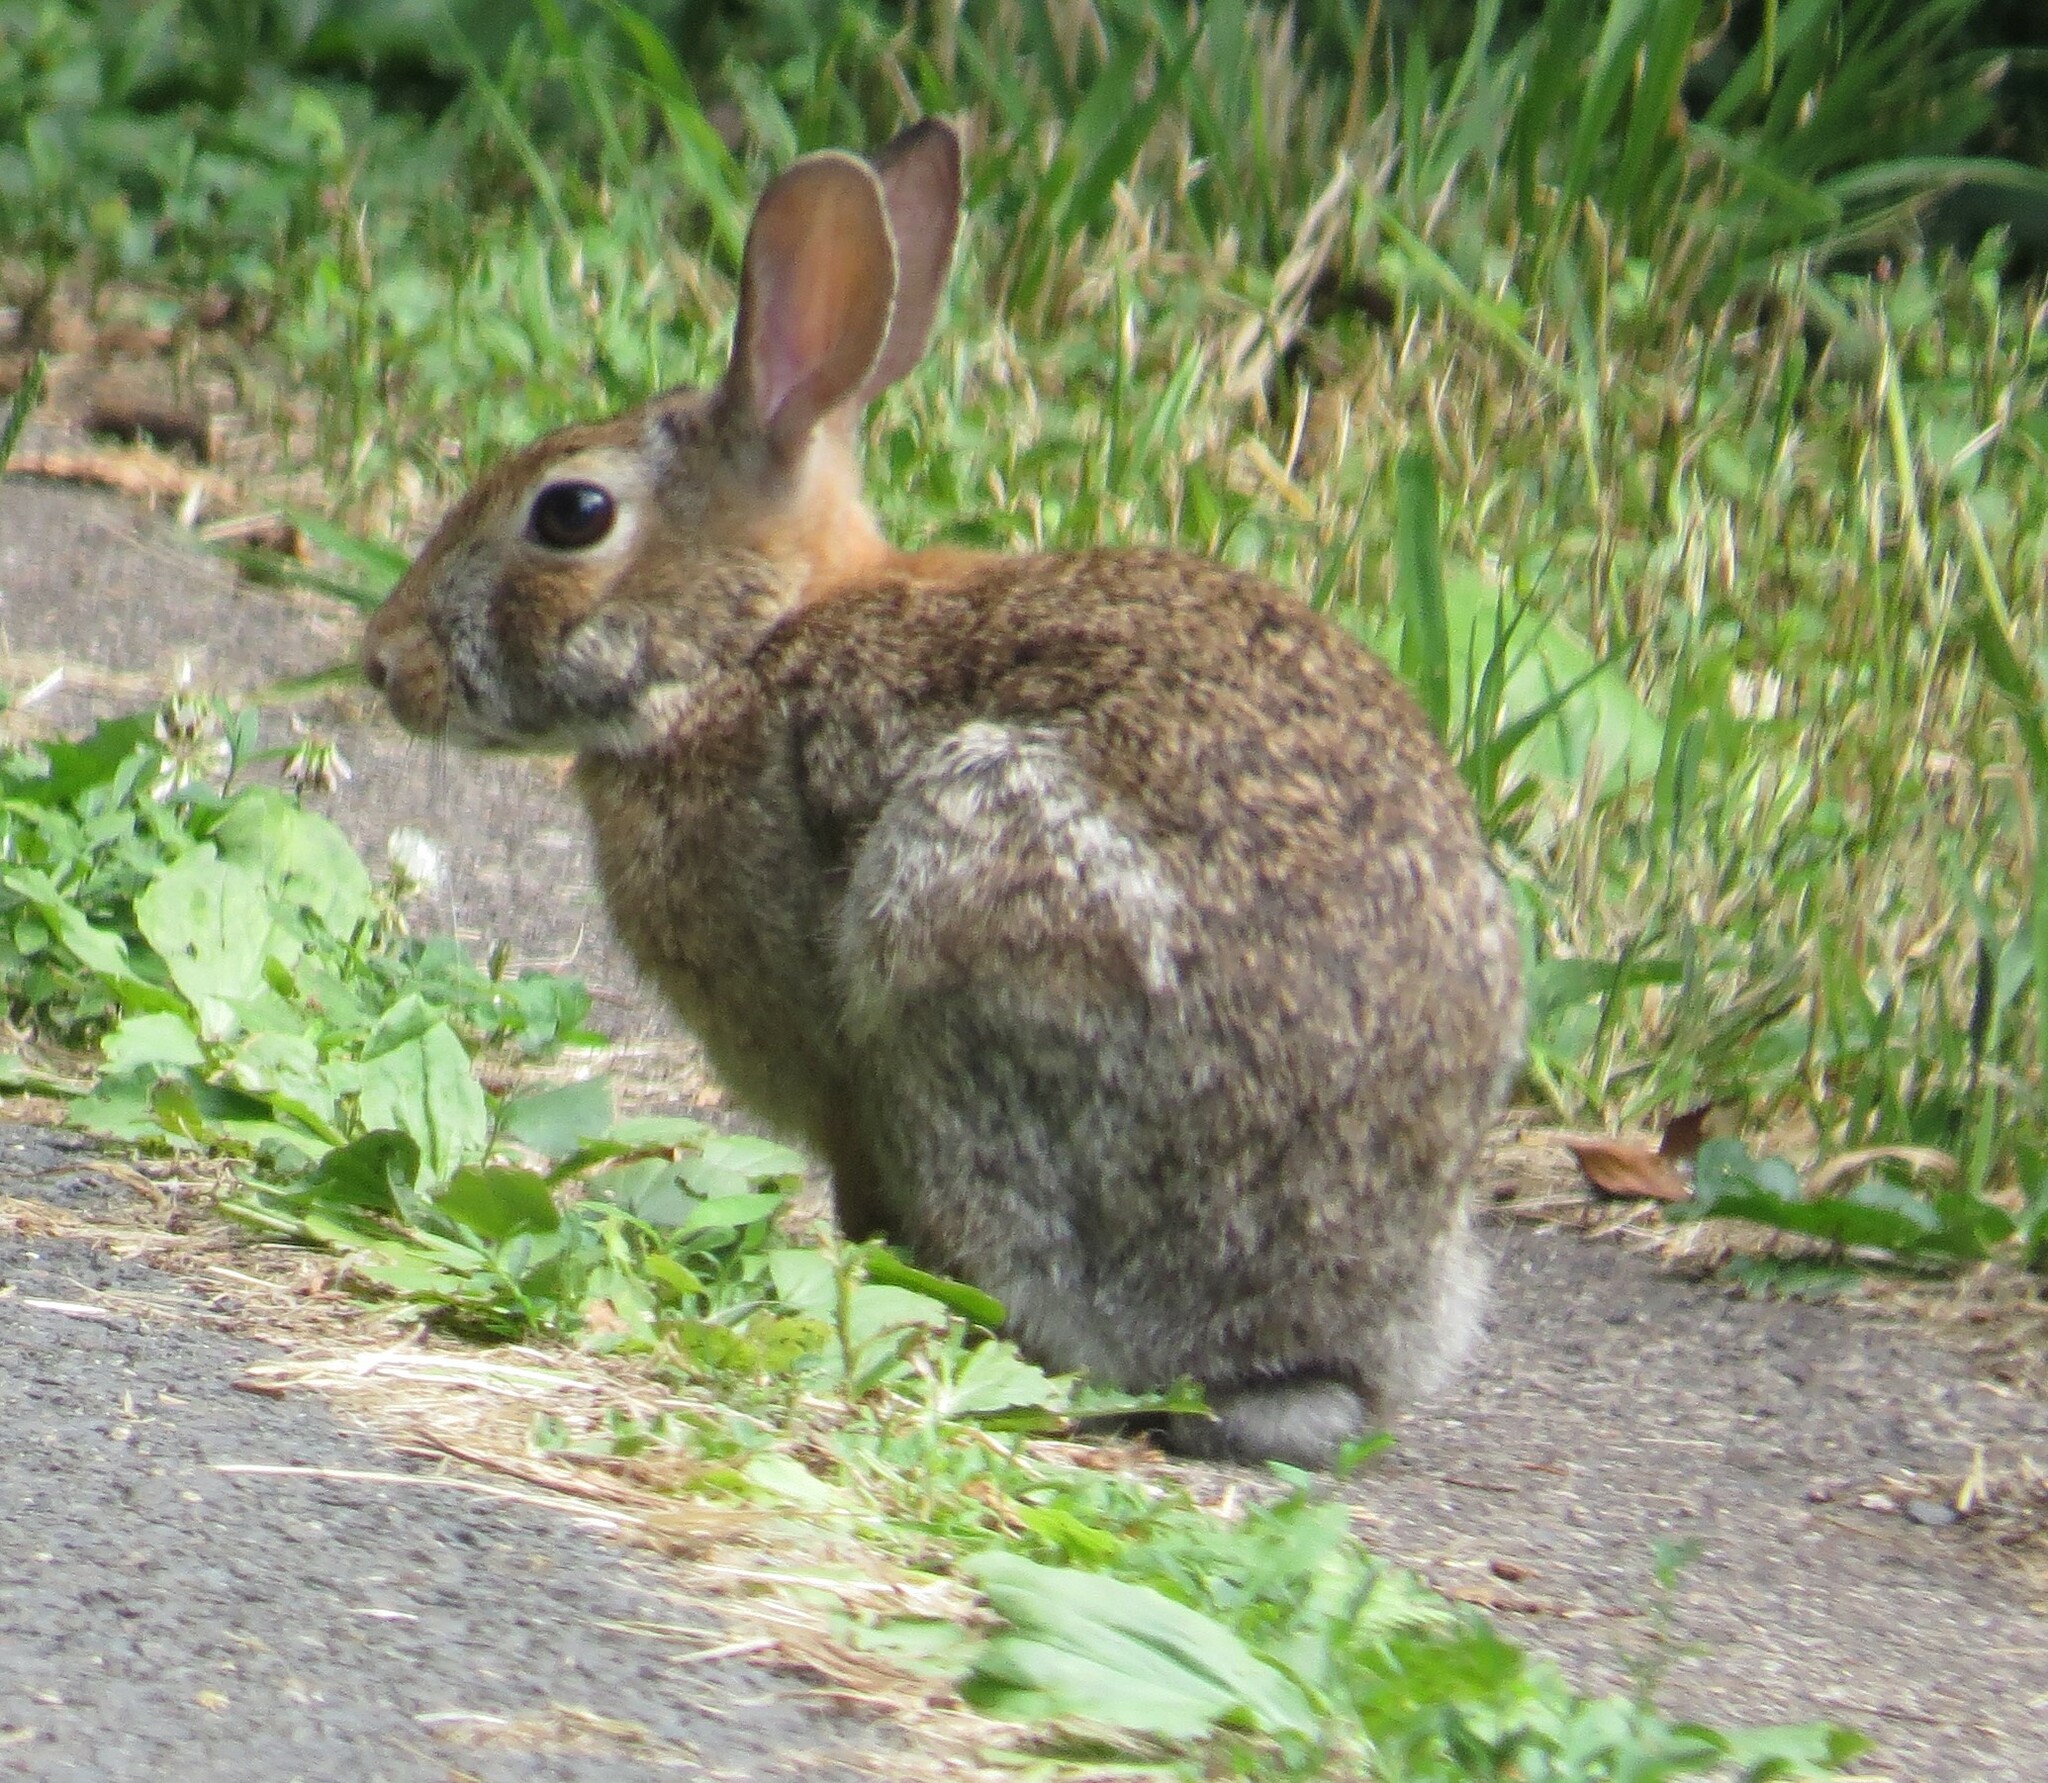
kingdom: Animalia
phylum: Chordata
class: Mammalia
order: Lagomorpha
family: Leporidae
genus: Sylvilagus
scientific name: Sylvilagus floridanus
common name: Eastern cottontail
